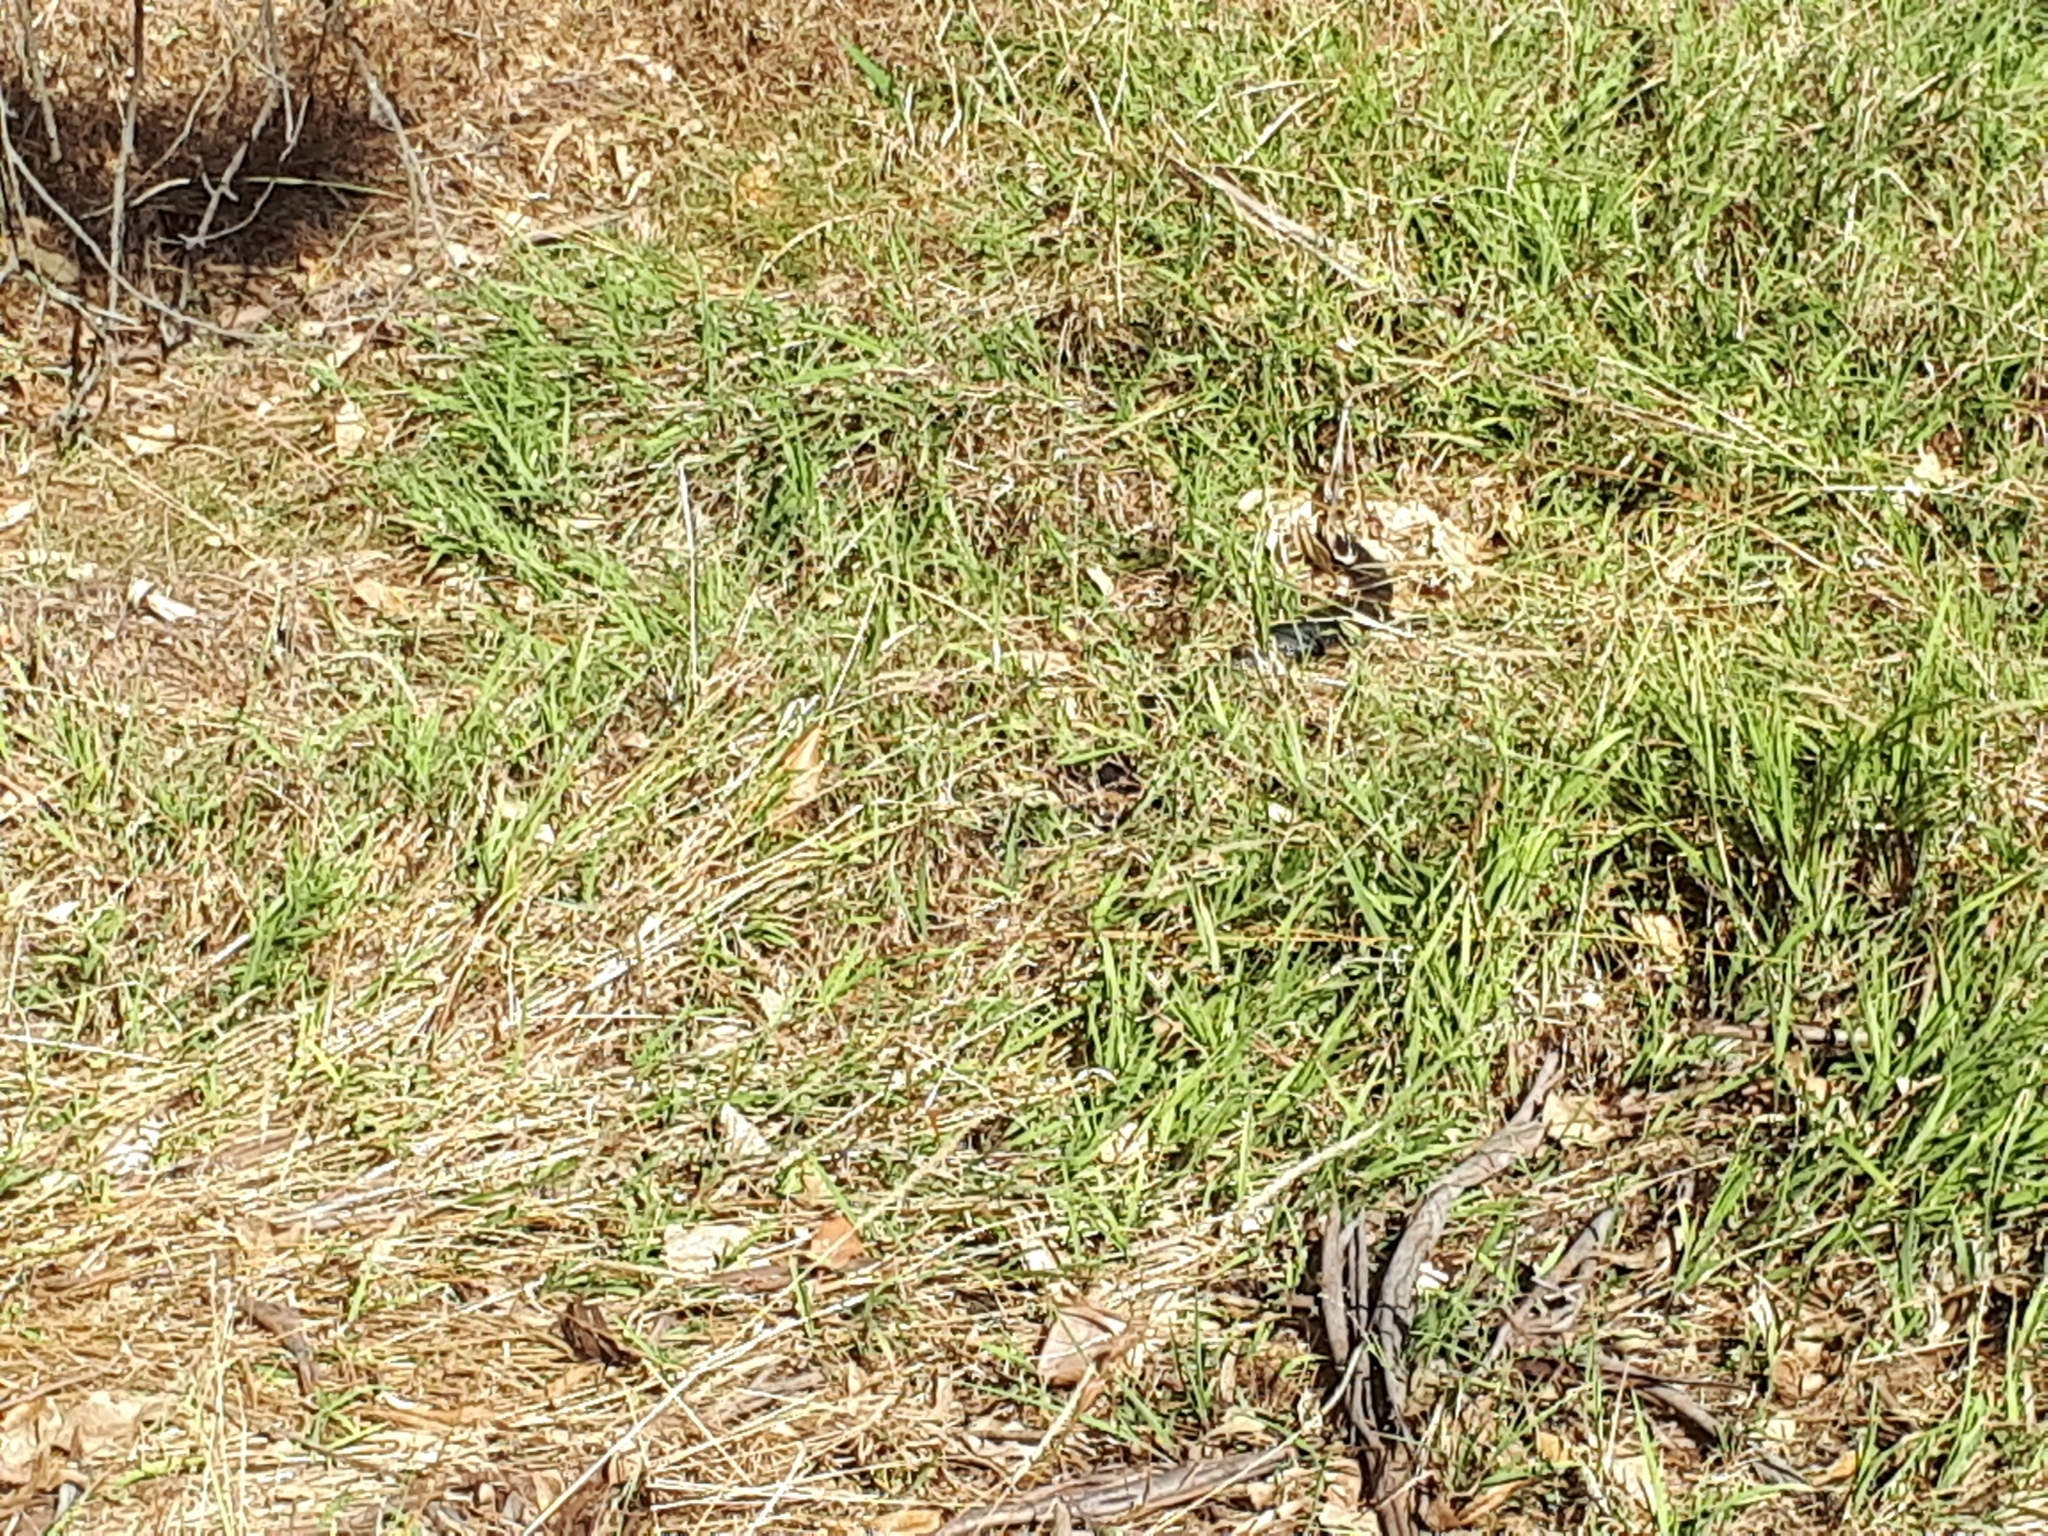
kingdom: Animalia
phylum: Chordata
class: Squamata
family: Elapidae
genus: Pseudechis
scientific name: Pseudechis porphyriacus
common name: Australian black snake
